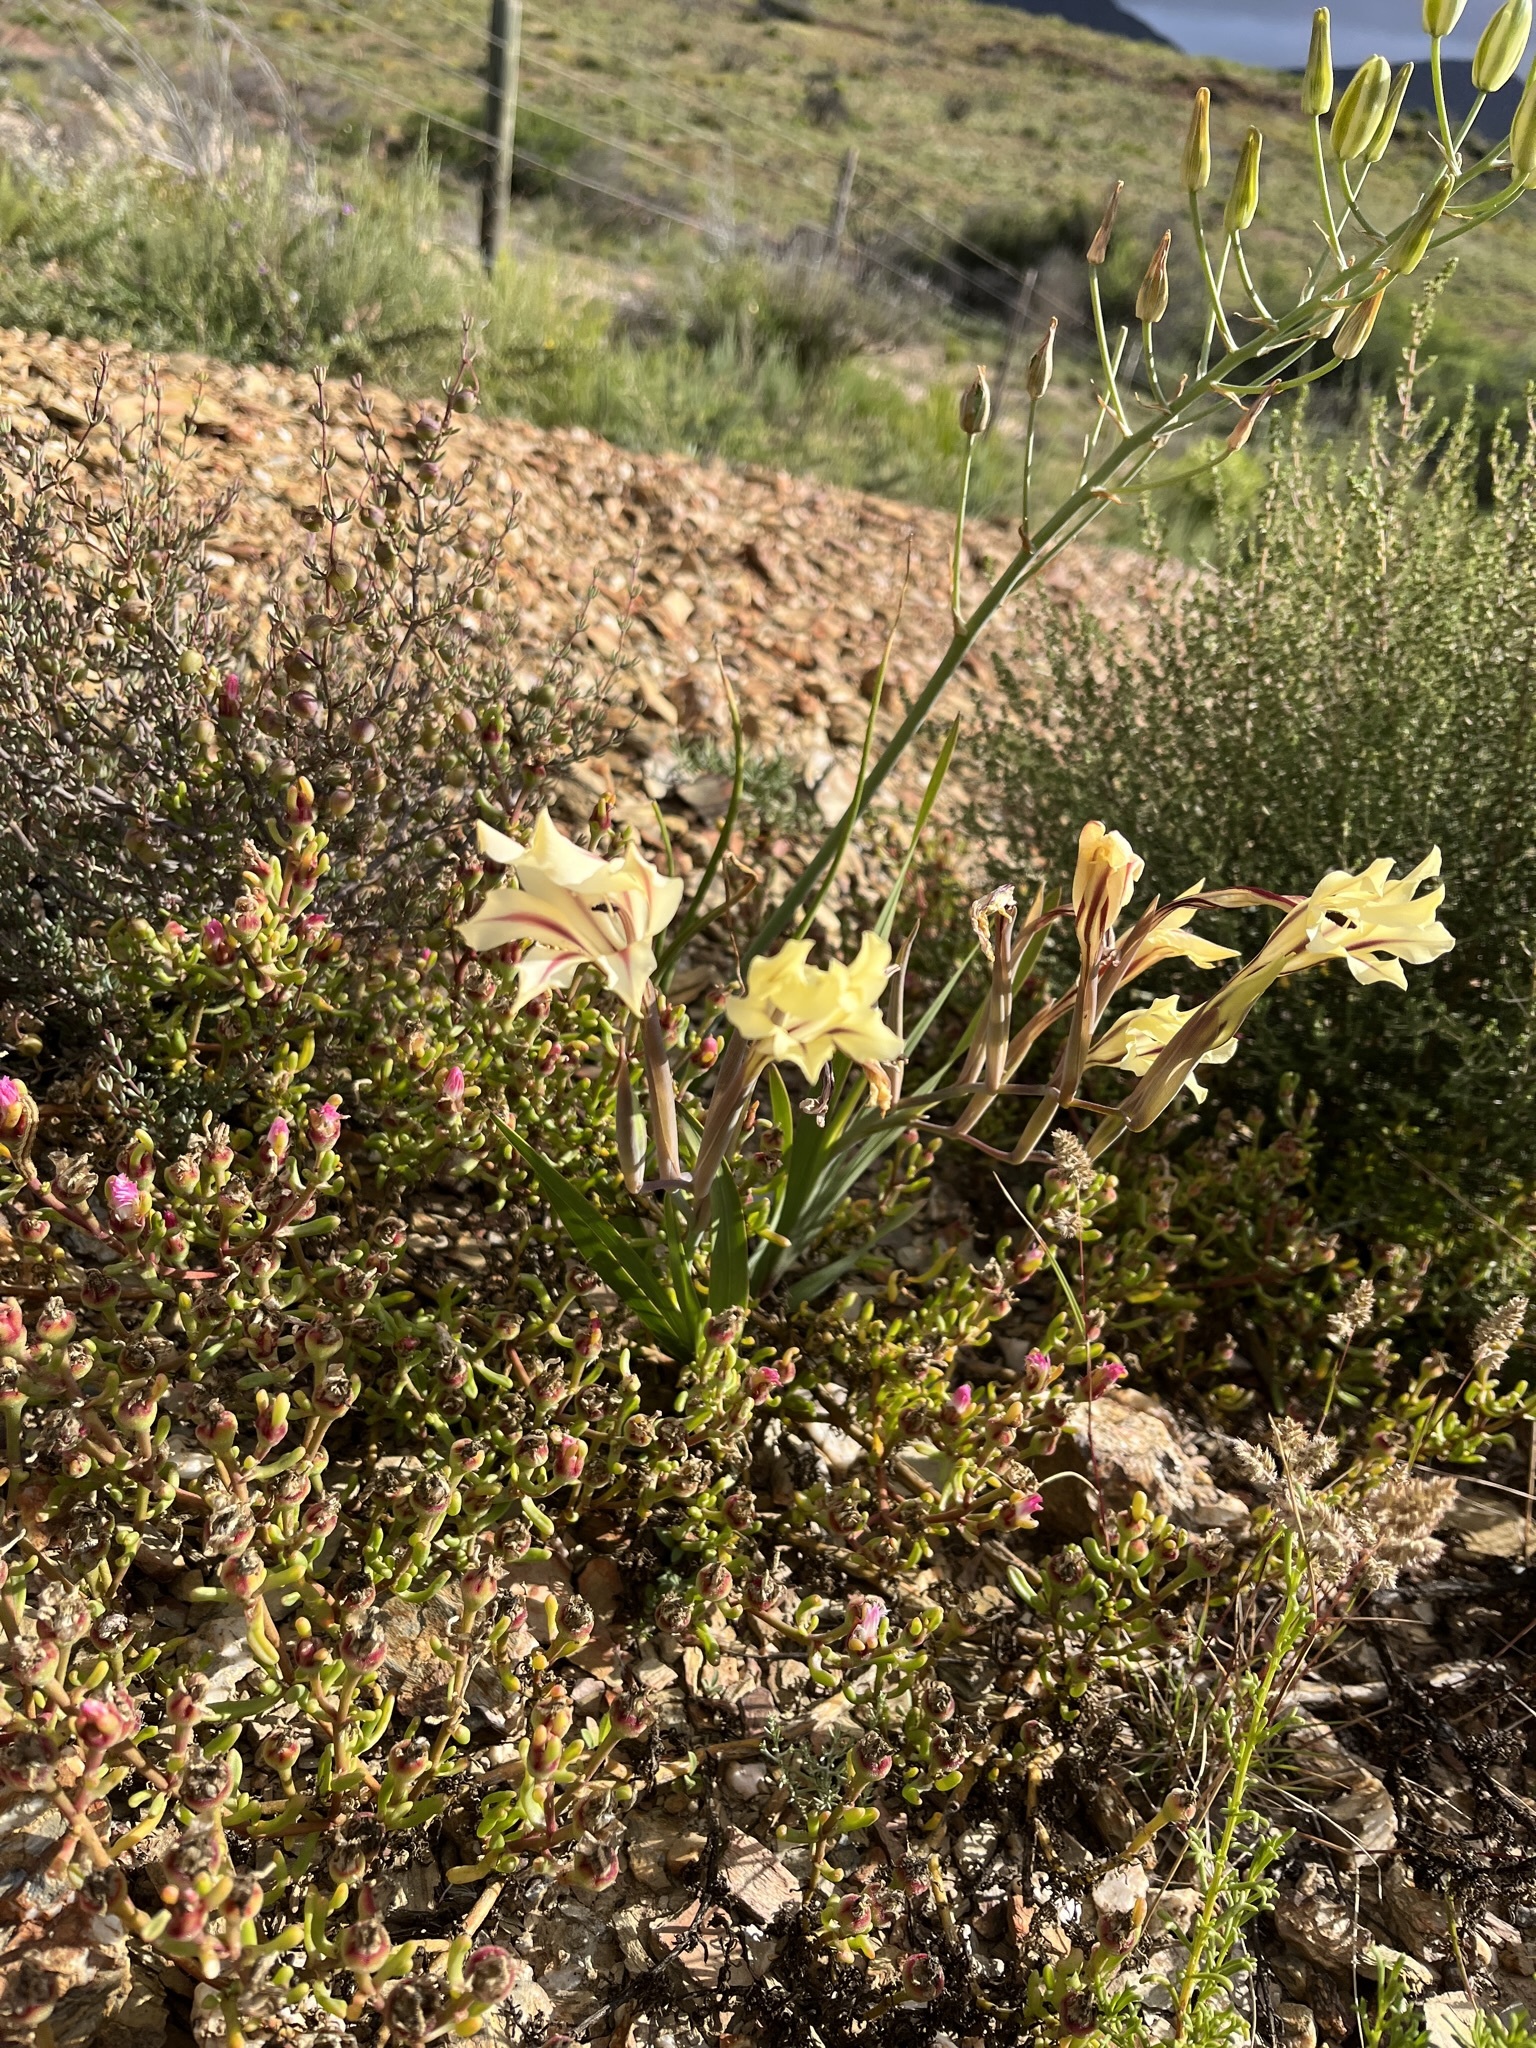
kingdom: Plantae
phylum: Tracheophyta
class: Liliopsida
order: Asparagales
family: Iridaceae
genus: Gladiolus
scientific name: Gladiolus floribundus
